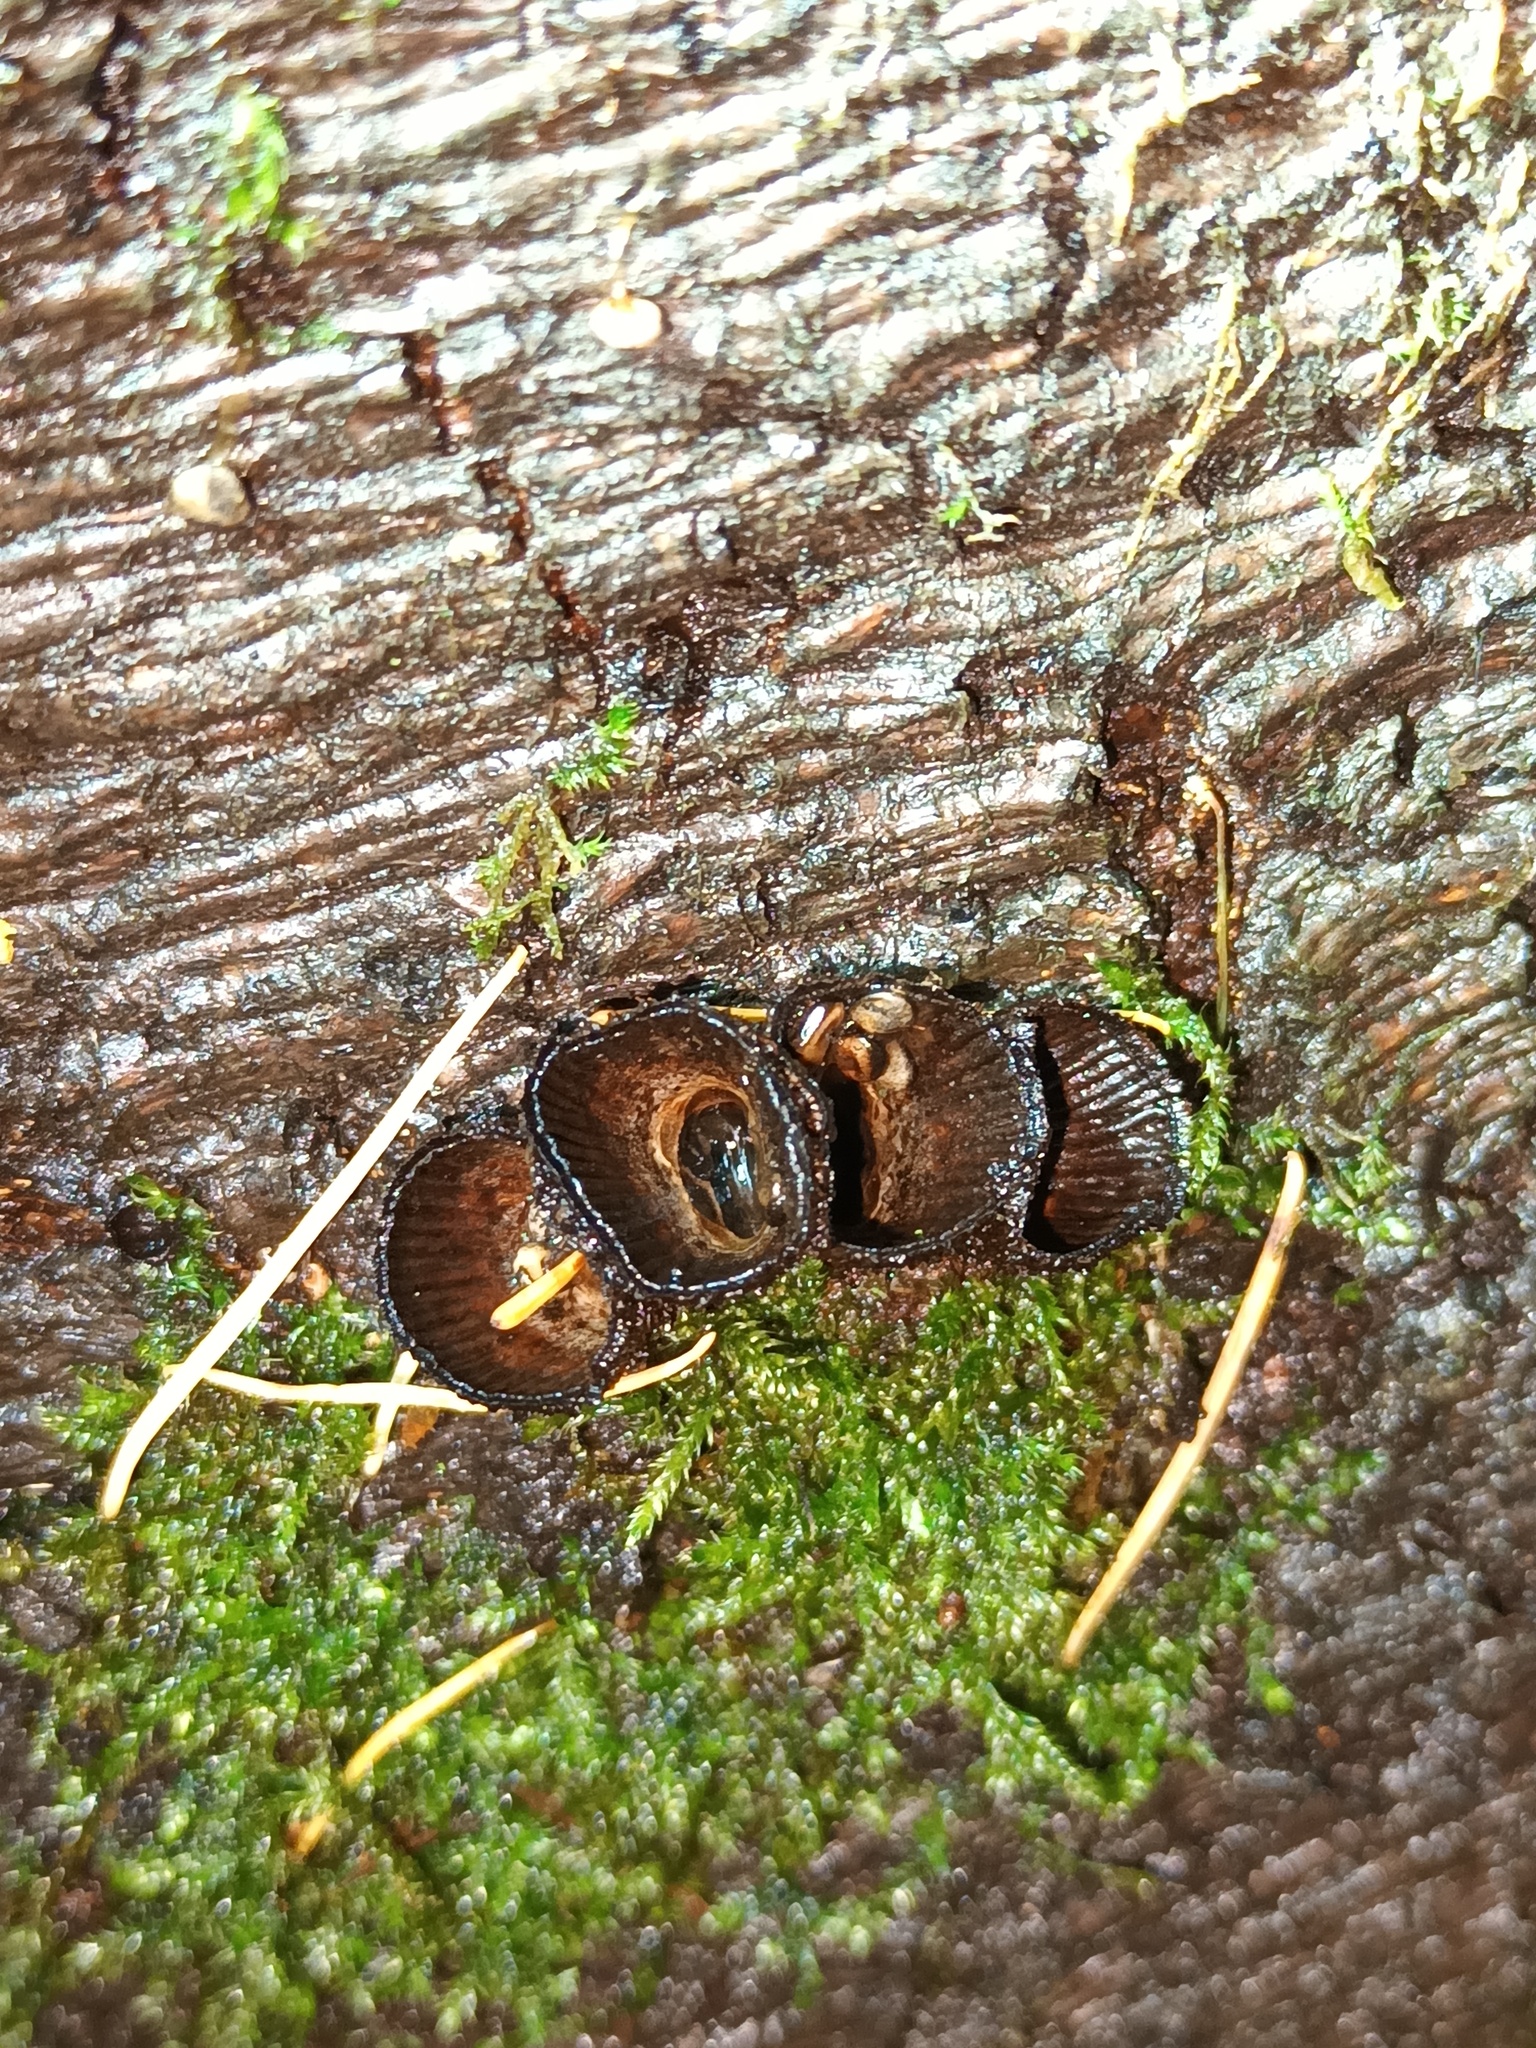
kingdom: Fungi
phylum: Basidiomycota
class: Agaricomycetes
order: Agaricales
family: Agaricaceae
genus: Cyathus
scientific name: Cyathus striatus
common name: Fluted bird's nest
